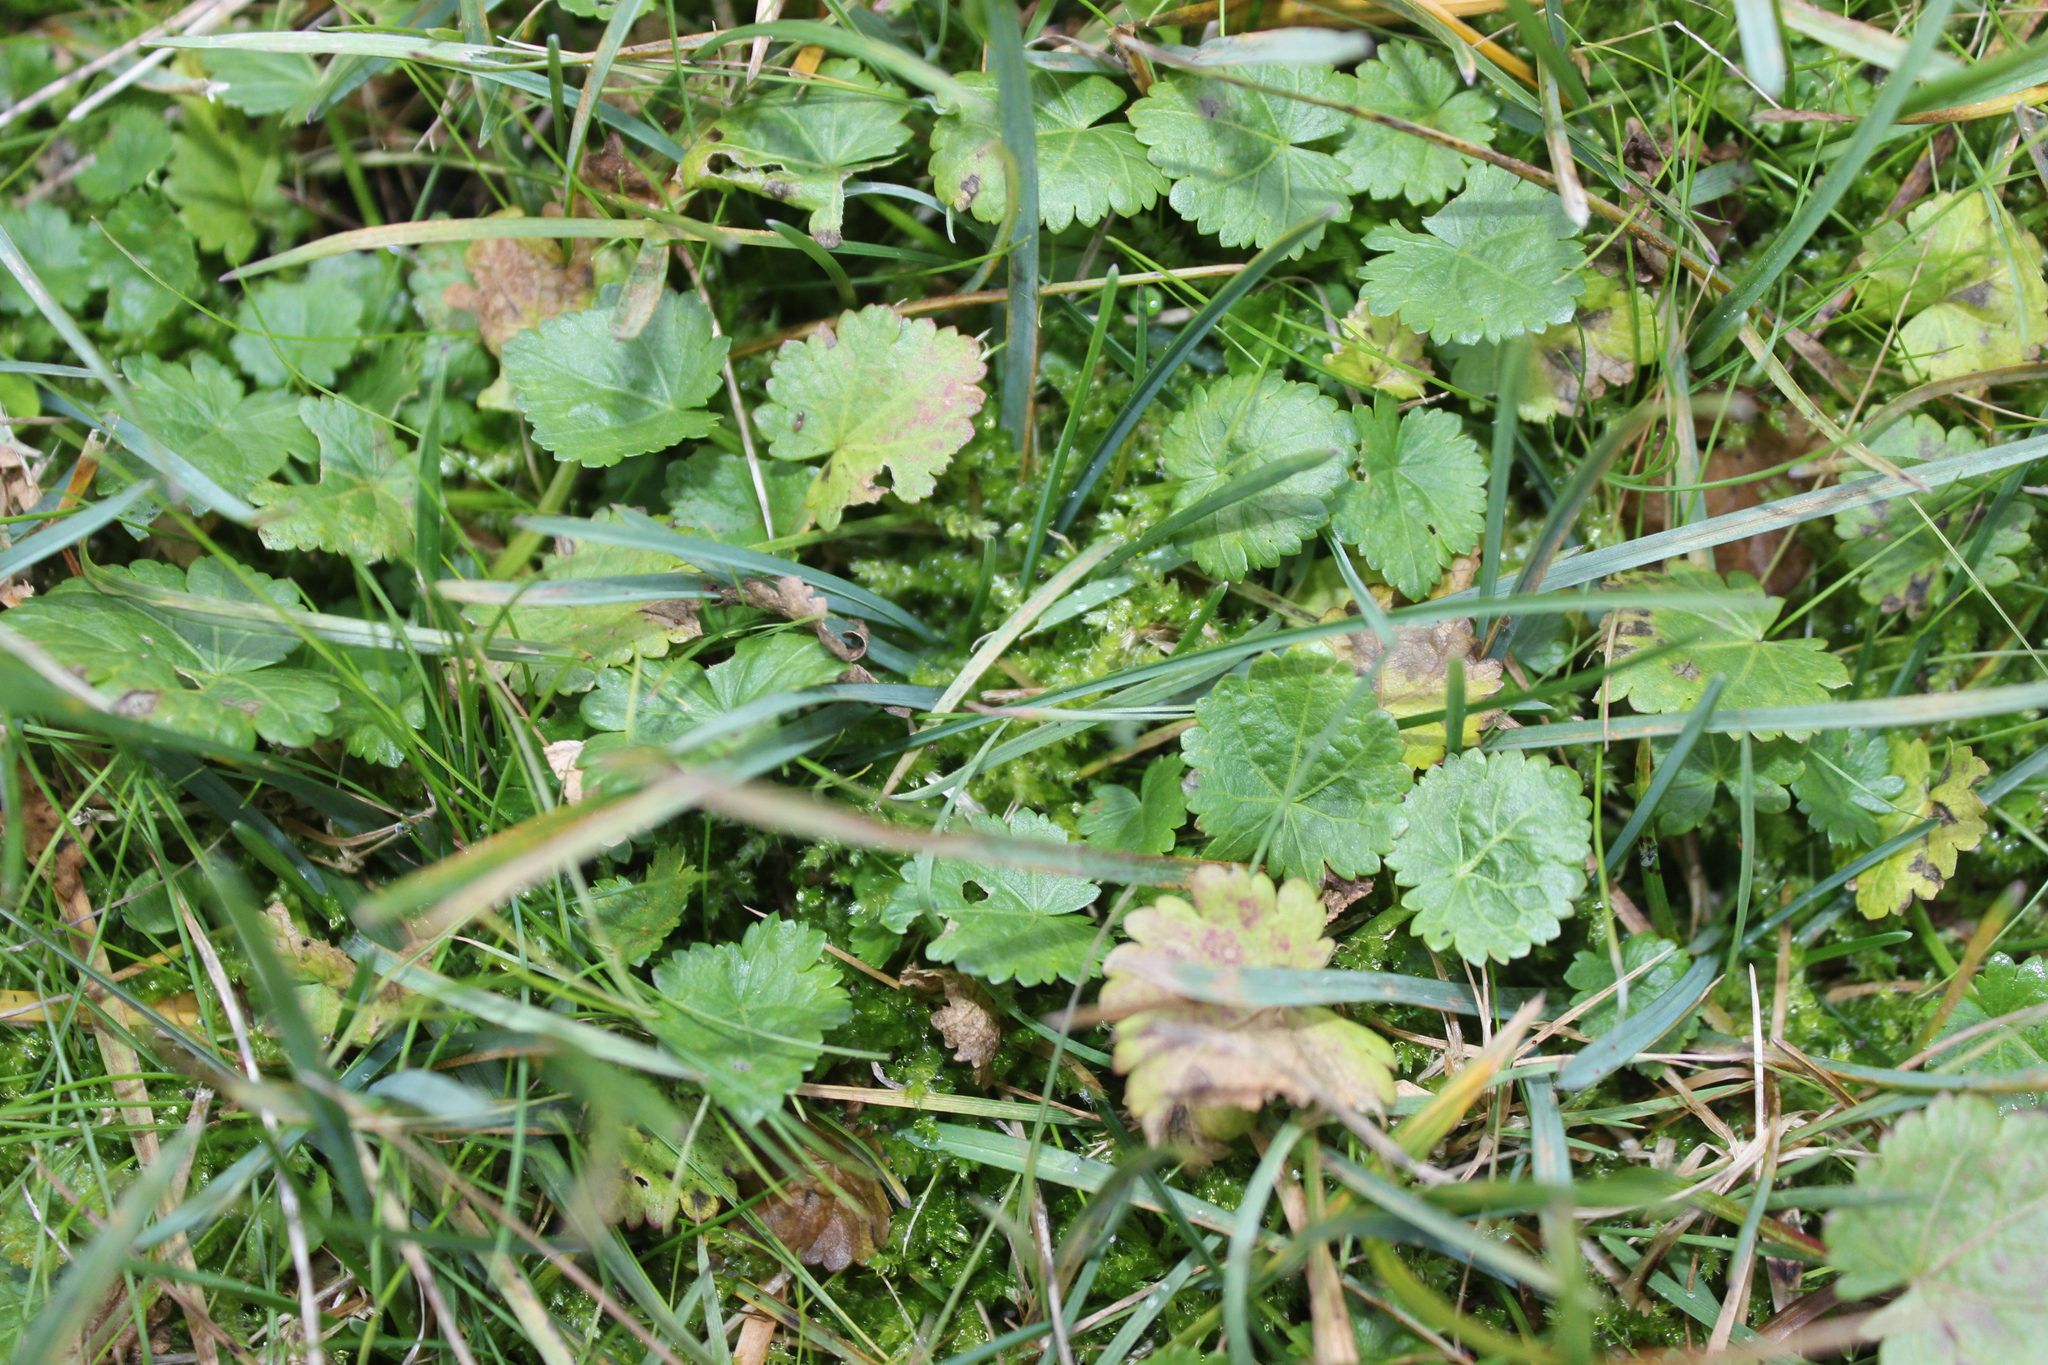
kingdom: Plantae
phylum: Tracheophyta
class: Magnoliopsida
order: Malvales
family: Malvaceae
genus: Modiola
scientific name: Modiola caroliniana
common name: Carolina bristlemallow
